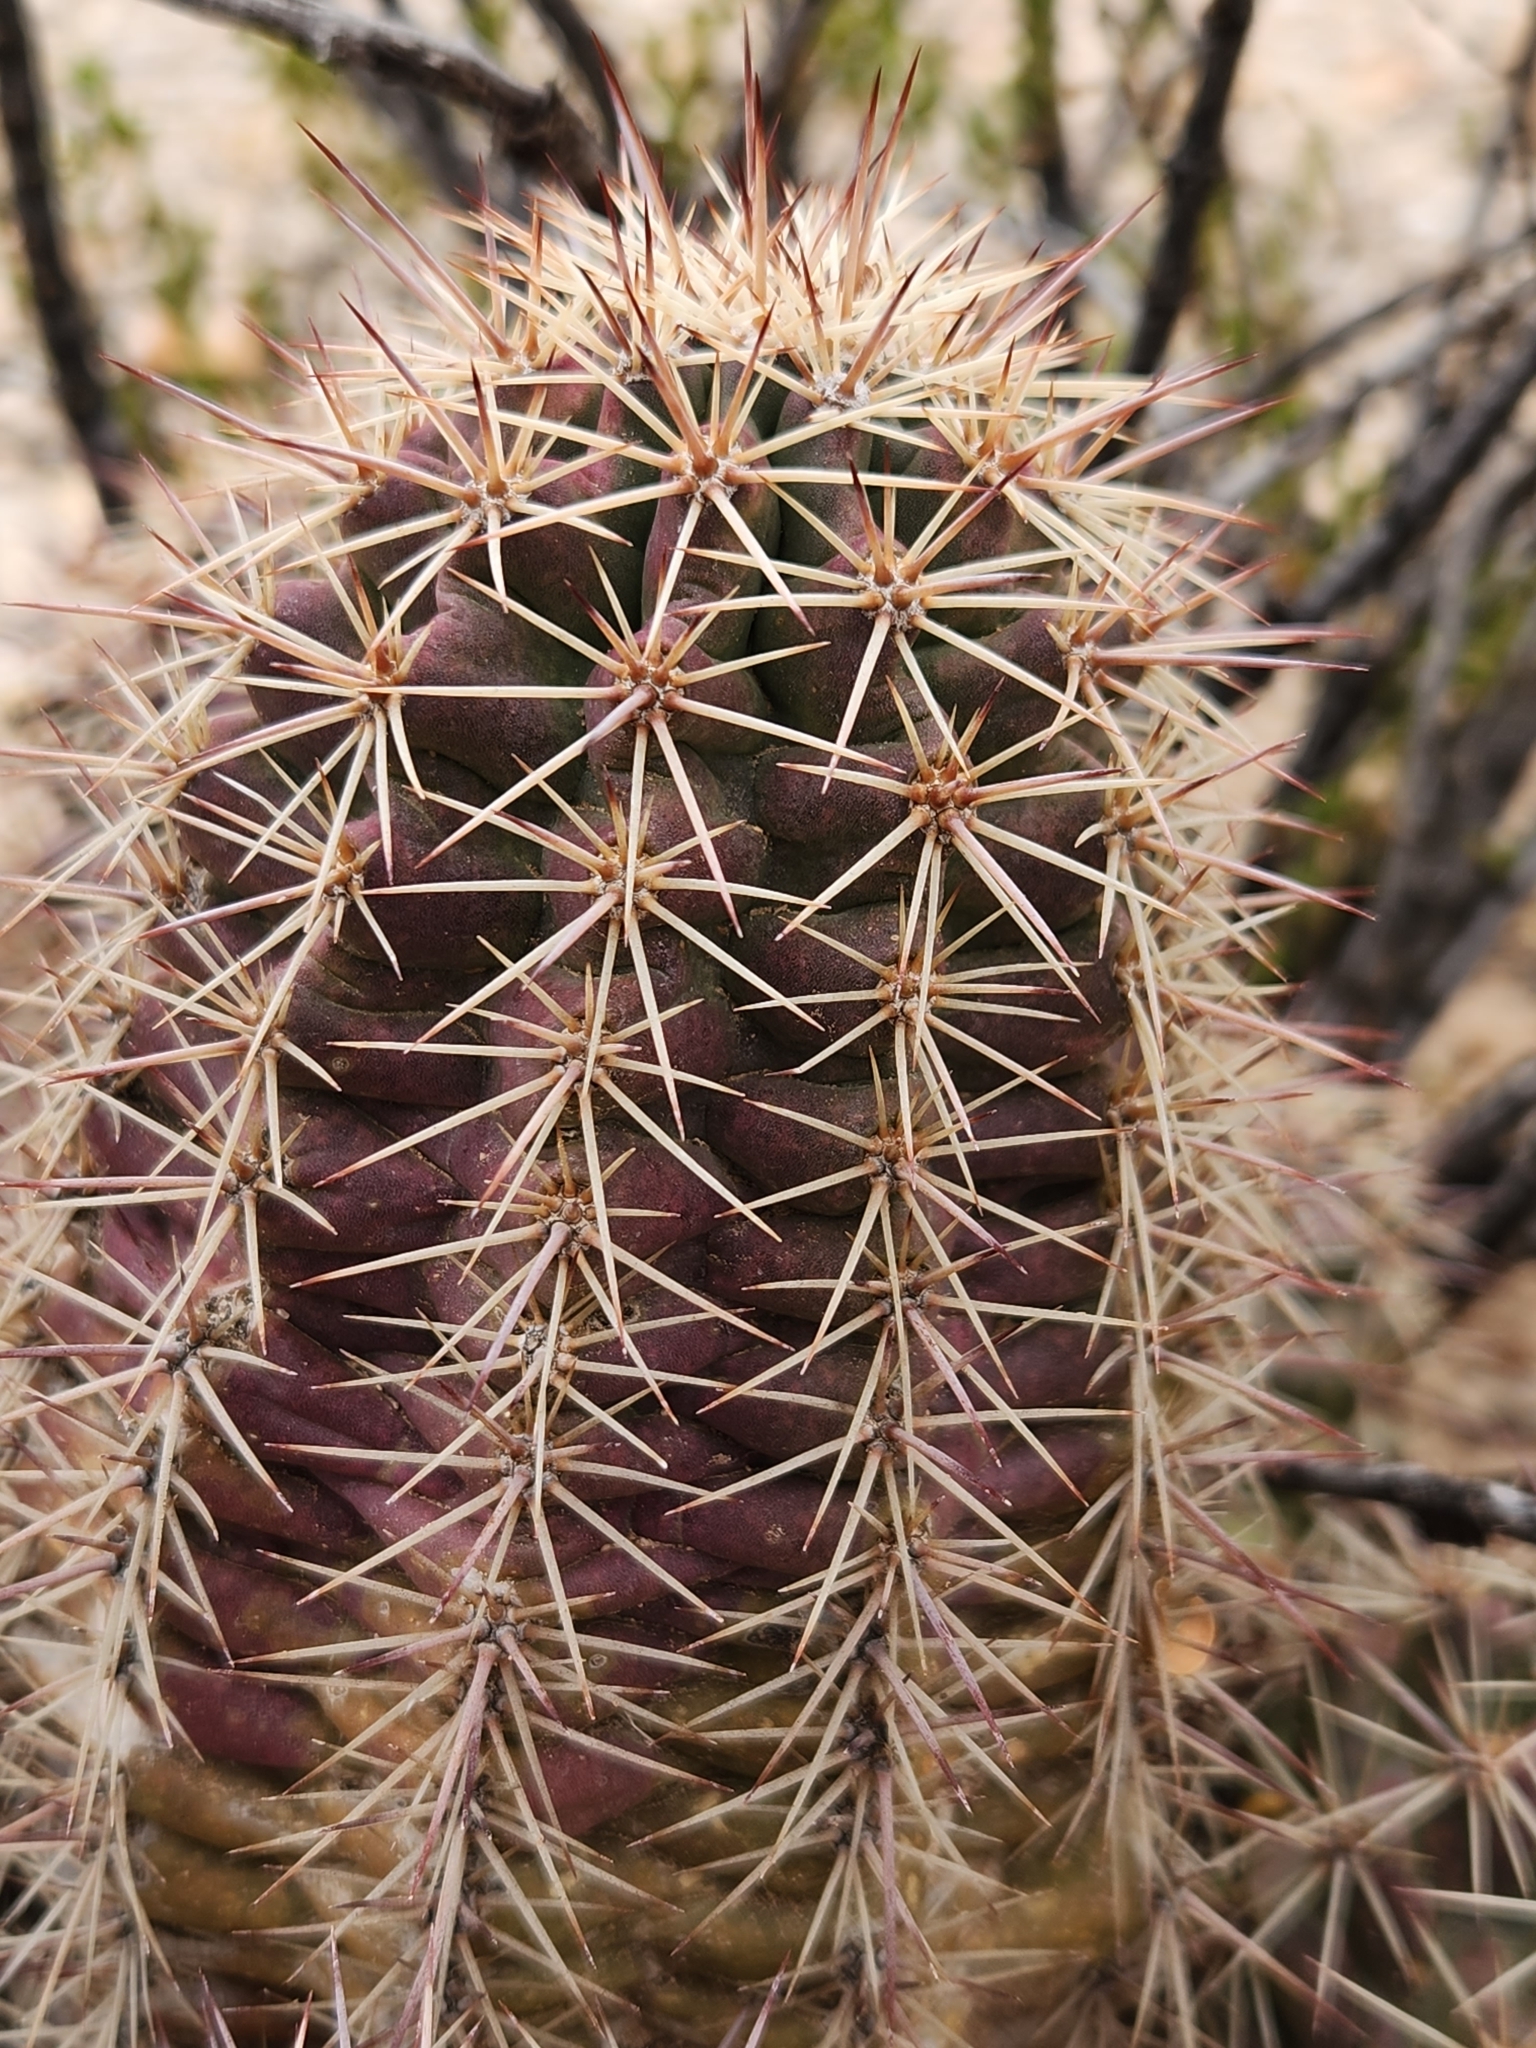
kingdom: Plantae
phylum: Tracheophyta
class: Magnoliopsida
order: Caryophyllales
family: Cactaceae
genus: Echinocereus
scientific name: Echinocereus coccineus
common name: Scarlet hedgehog cactus
